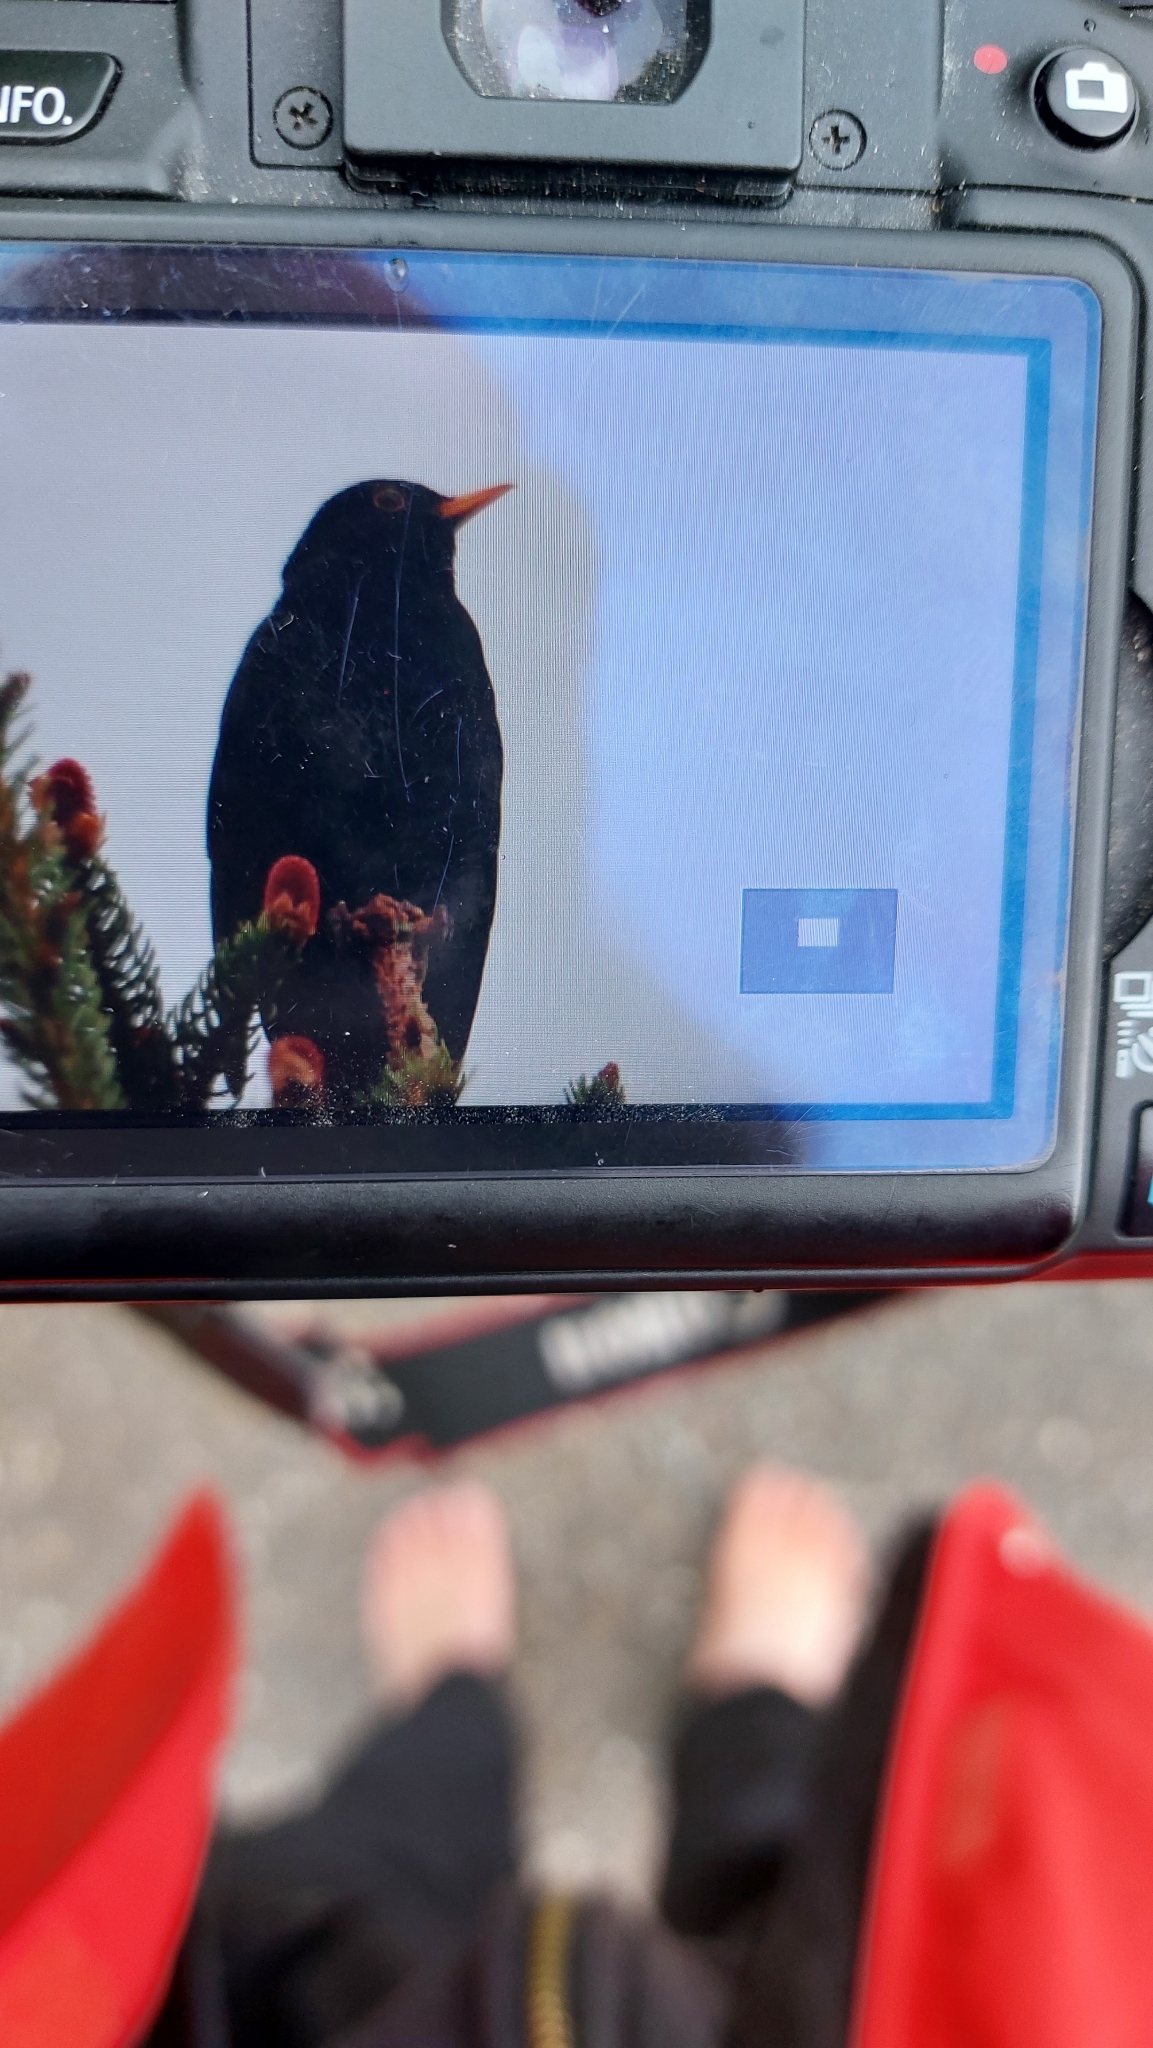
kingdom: Animalia
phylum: Chordata
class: Aves
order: Passeriformes
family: Turdidae
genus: Turdus
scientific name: Turdus merula
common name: Common blackbird
